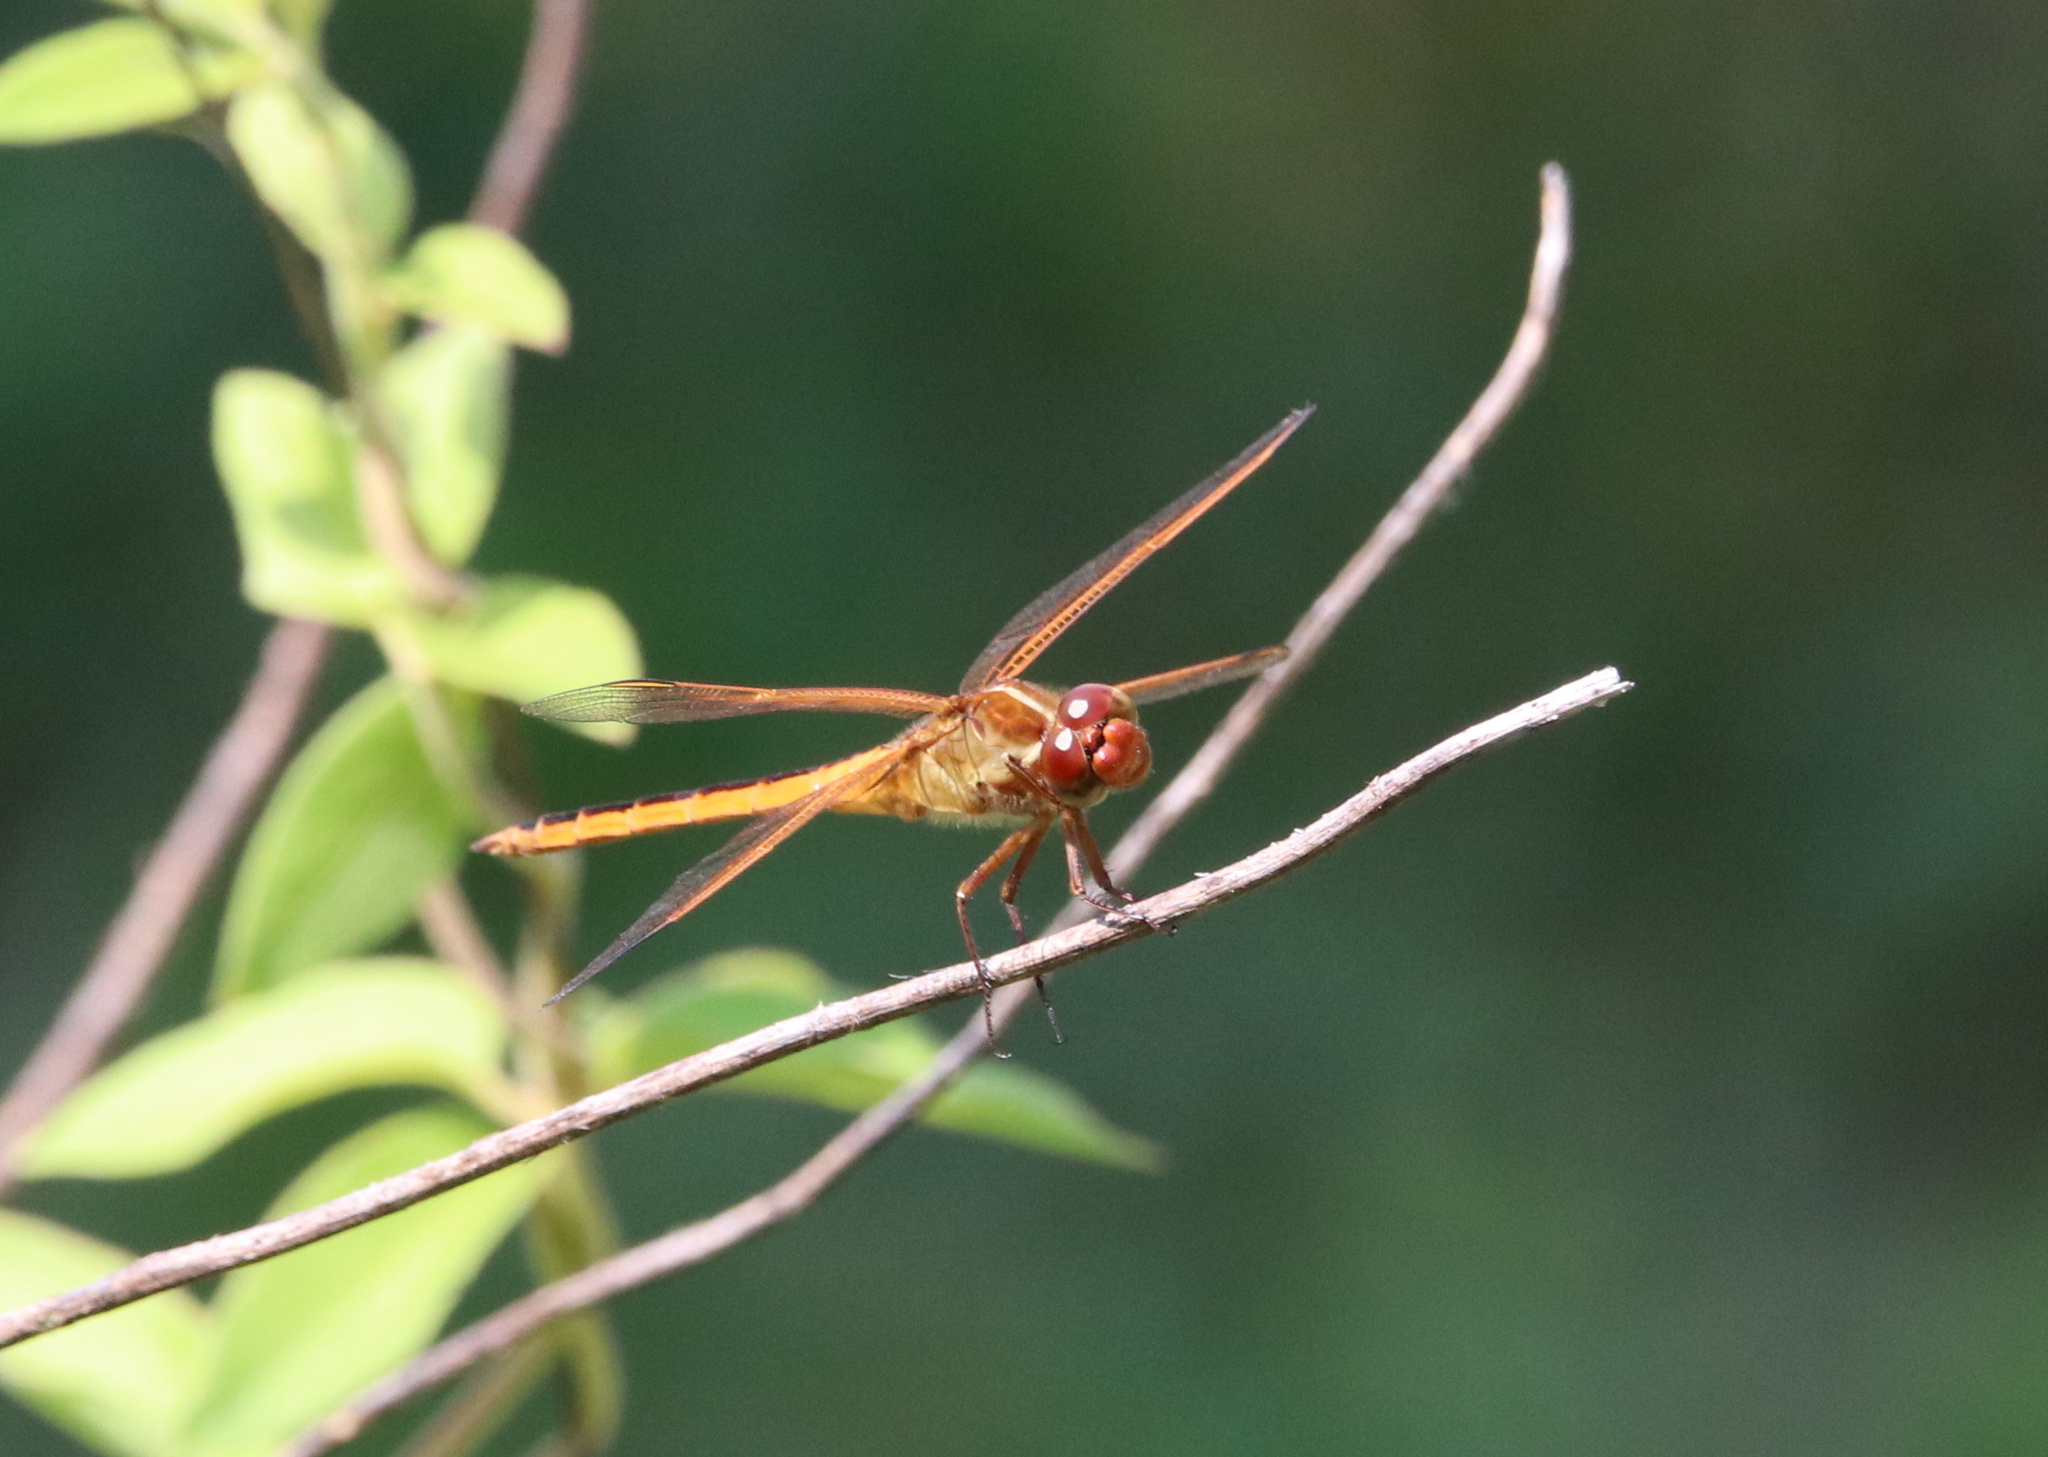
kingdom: Animalia
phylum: Arthropoda
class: Insecta
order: Odonata
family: Libellulidae
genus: Libellula
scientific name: Libellula needhami
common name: Needham's skimmer
